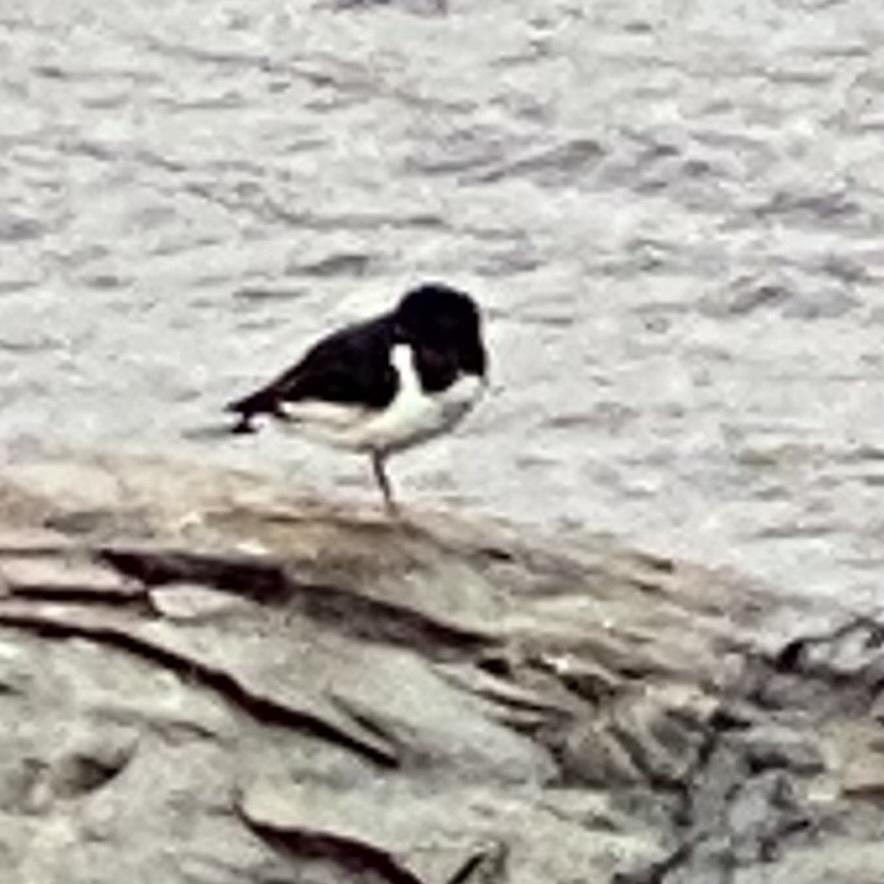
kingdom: Animalia
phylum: Chordata
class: Aves
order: Charadriiformes
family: Haematopodidae
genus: Haematopus
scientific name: Haematopus ostralegus
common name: Eurasian oystercatcher
